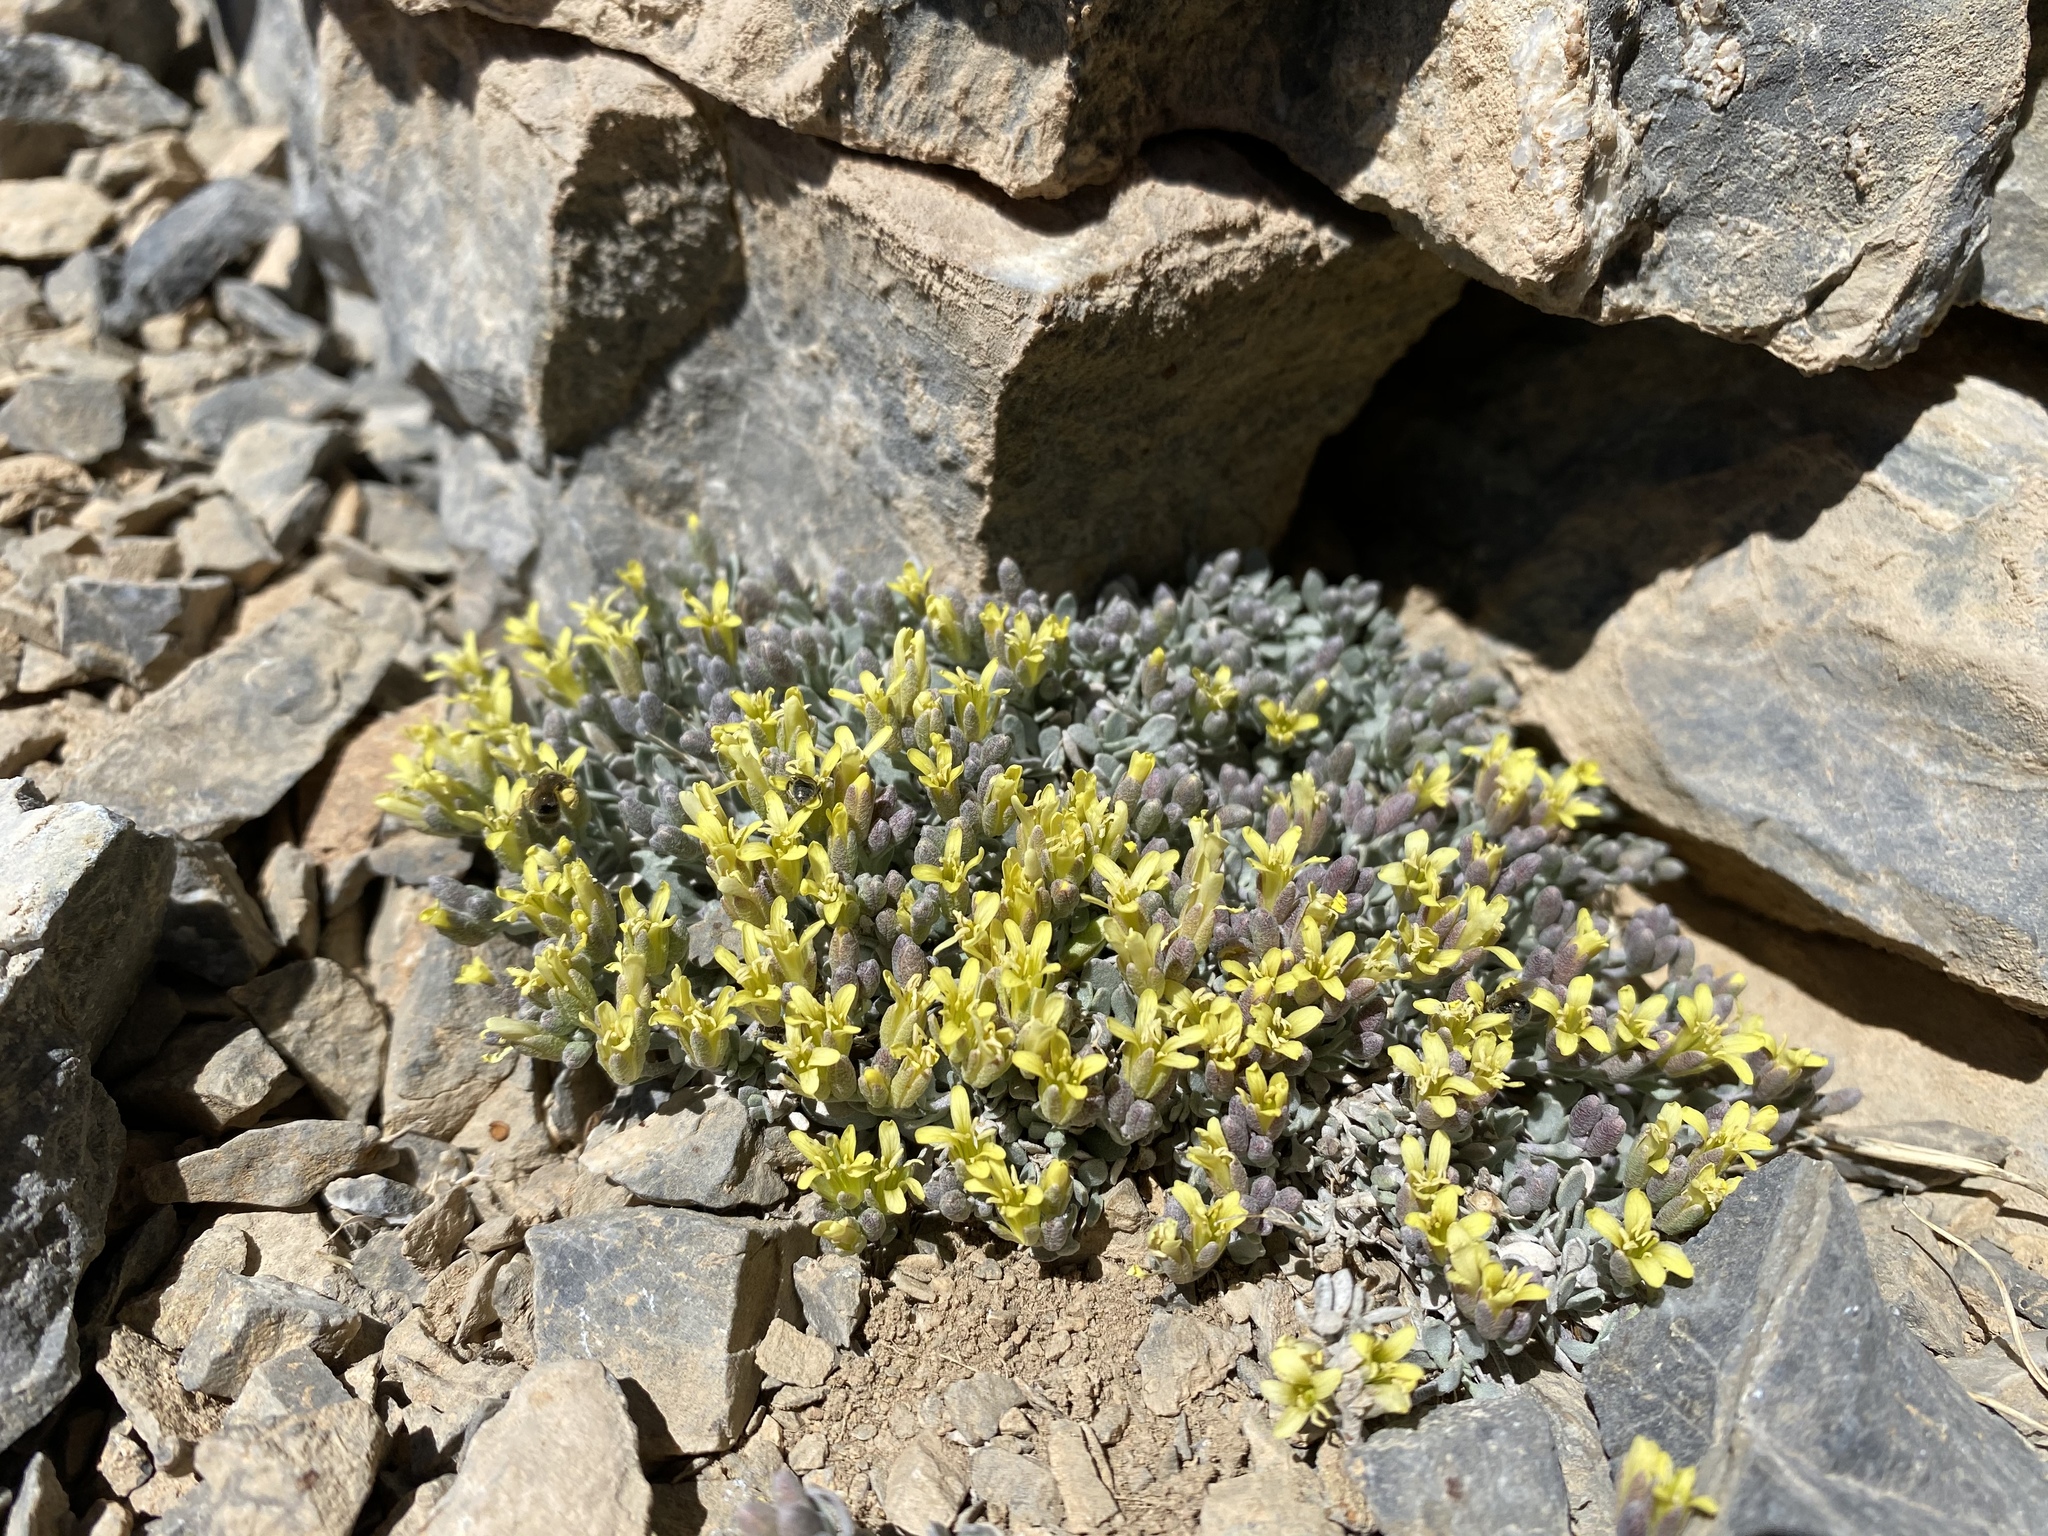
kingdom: Plantae
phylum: Tracheophyta
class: Magnoliopsida
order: Brassicales
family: Brassicaceae
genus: Physaria
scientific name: Physaria hitchcockii
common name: Hitchcock's bladderpod
